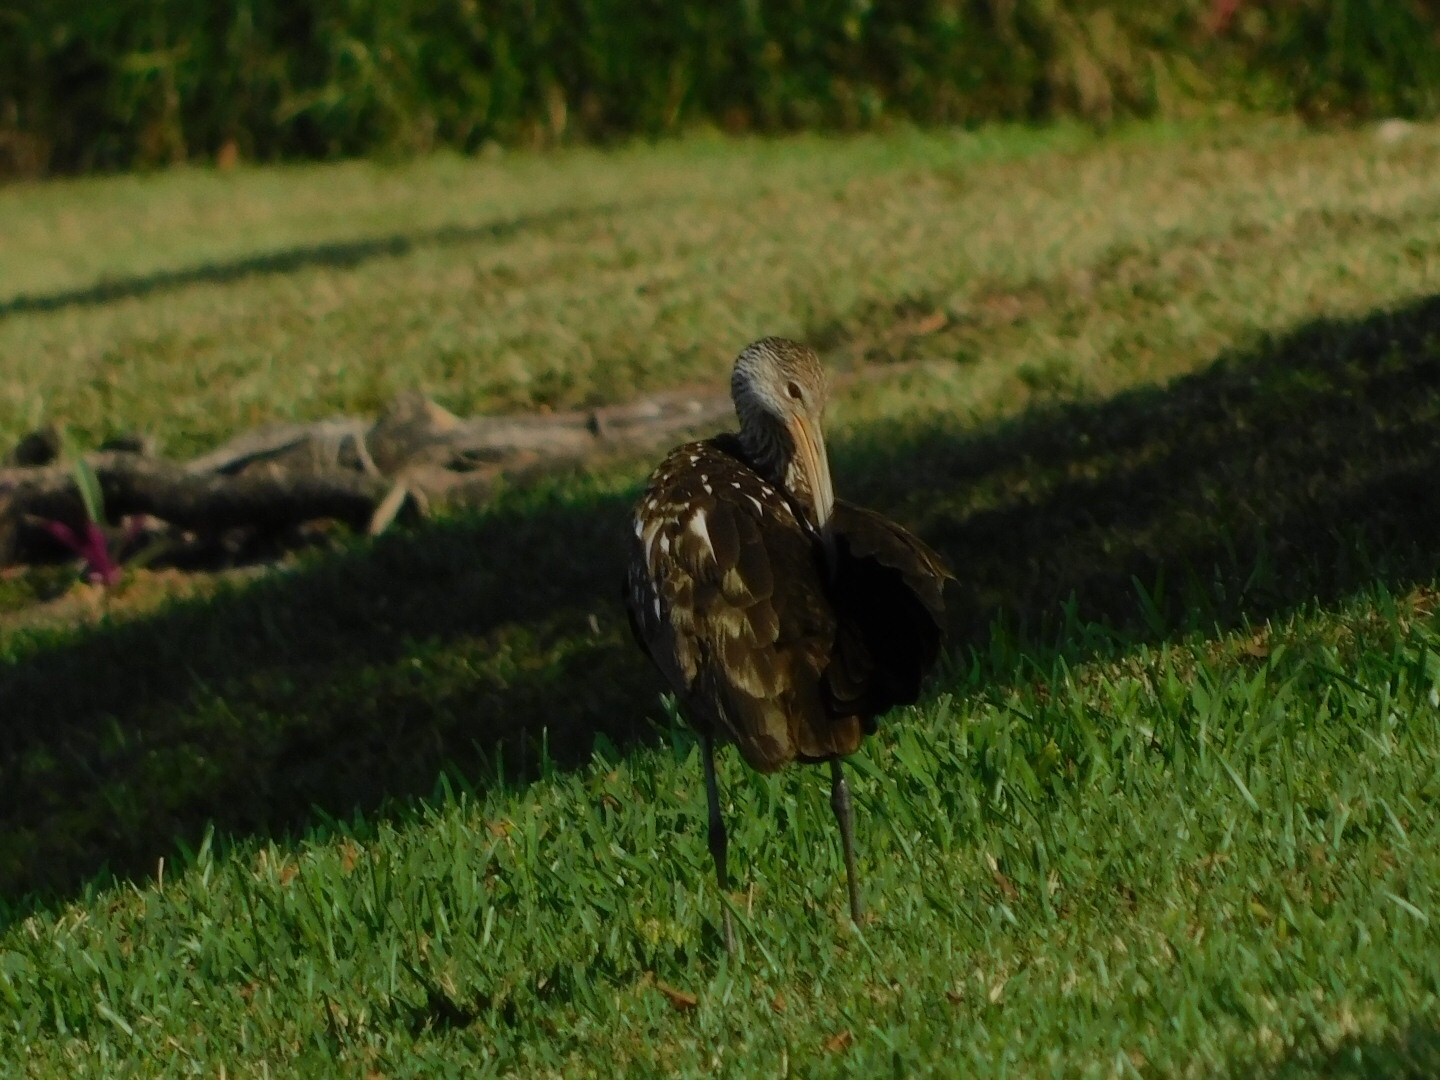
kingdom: Animalia
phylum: Chordata
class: Aves
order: Gruiformes
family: Aramidae
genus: Aramus
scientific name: Aramus guarauna
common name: Limpkin
